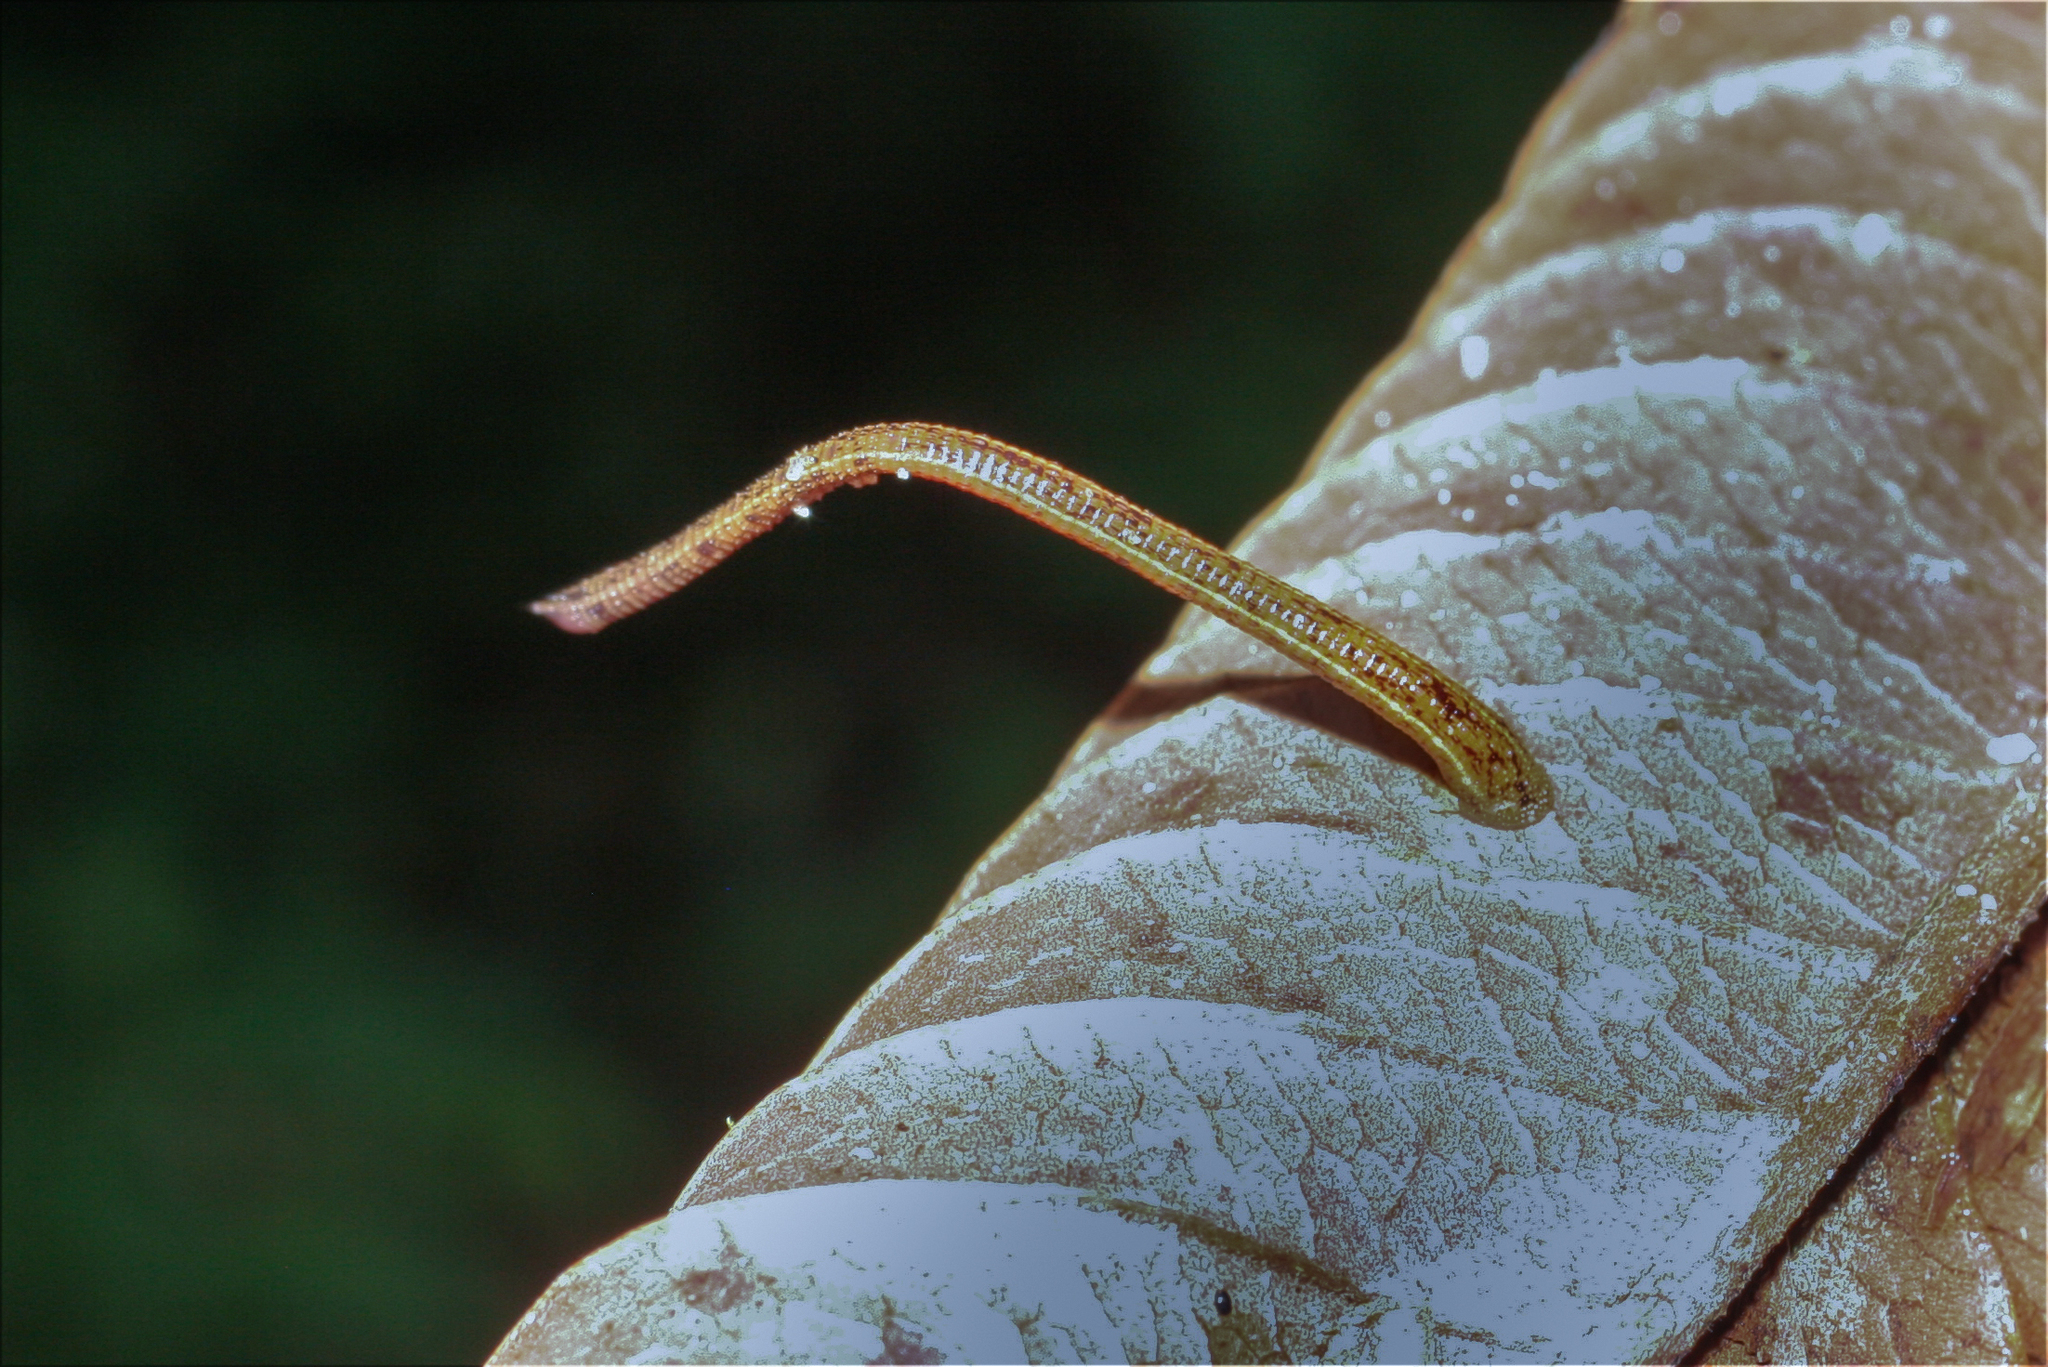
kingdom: Animalia
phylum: Annelida
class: Clitellata
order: Arhynchobdellida
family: Haemadipsidae
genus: Haemadipsa
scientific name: Haemadipsa zeylanica
